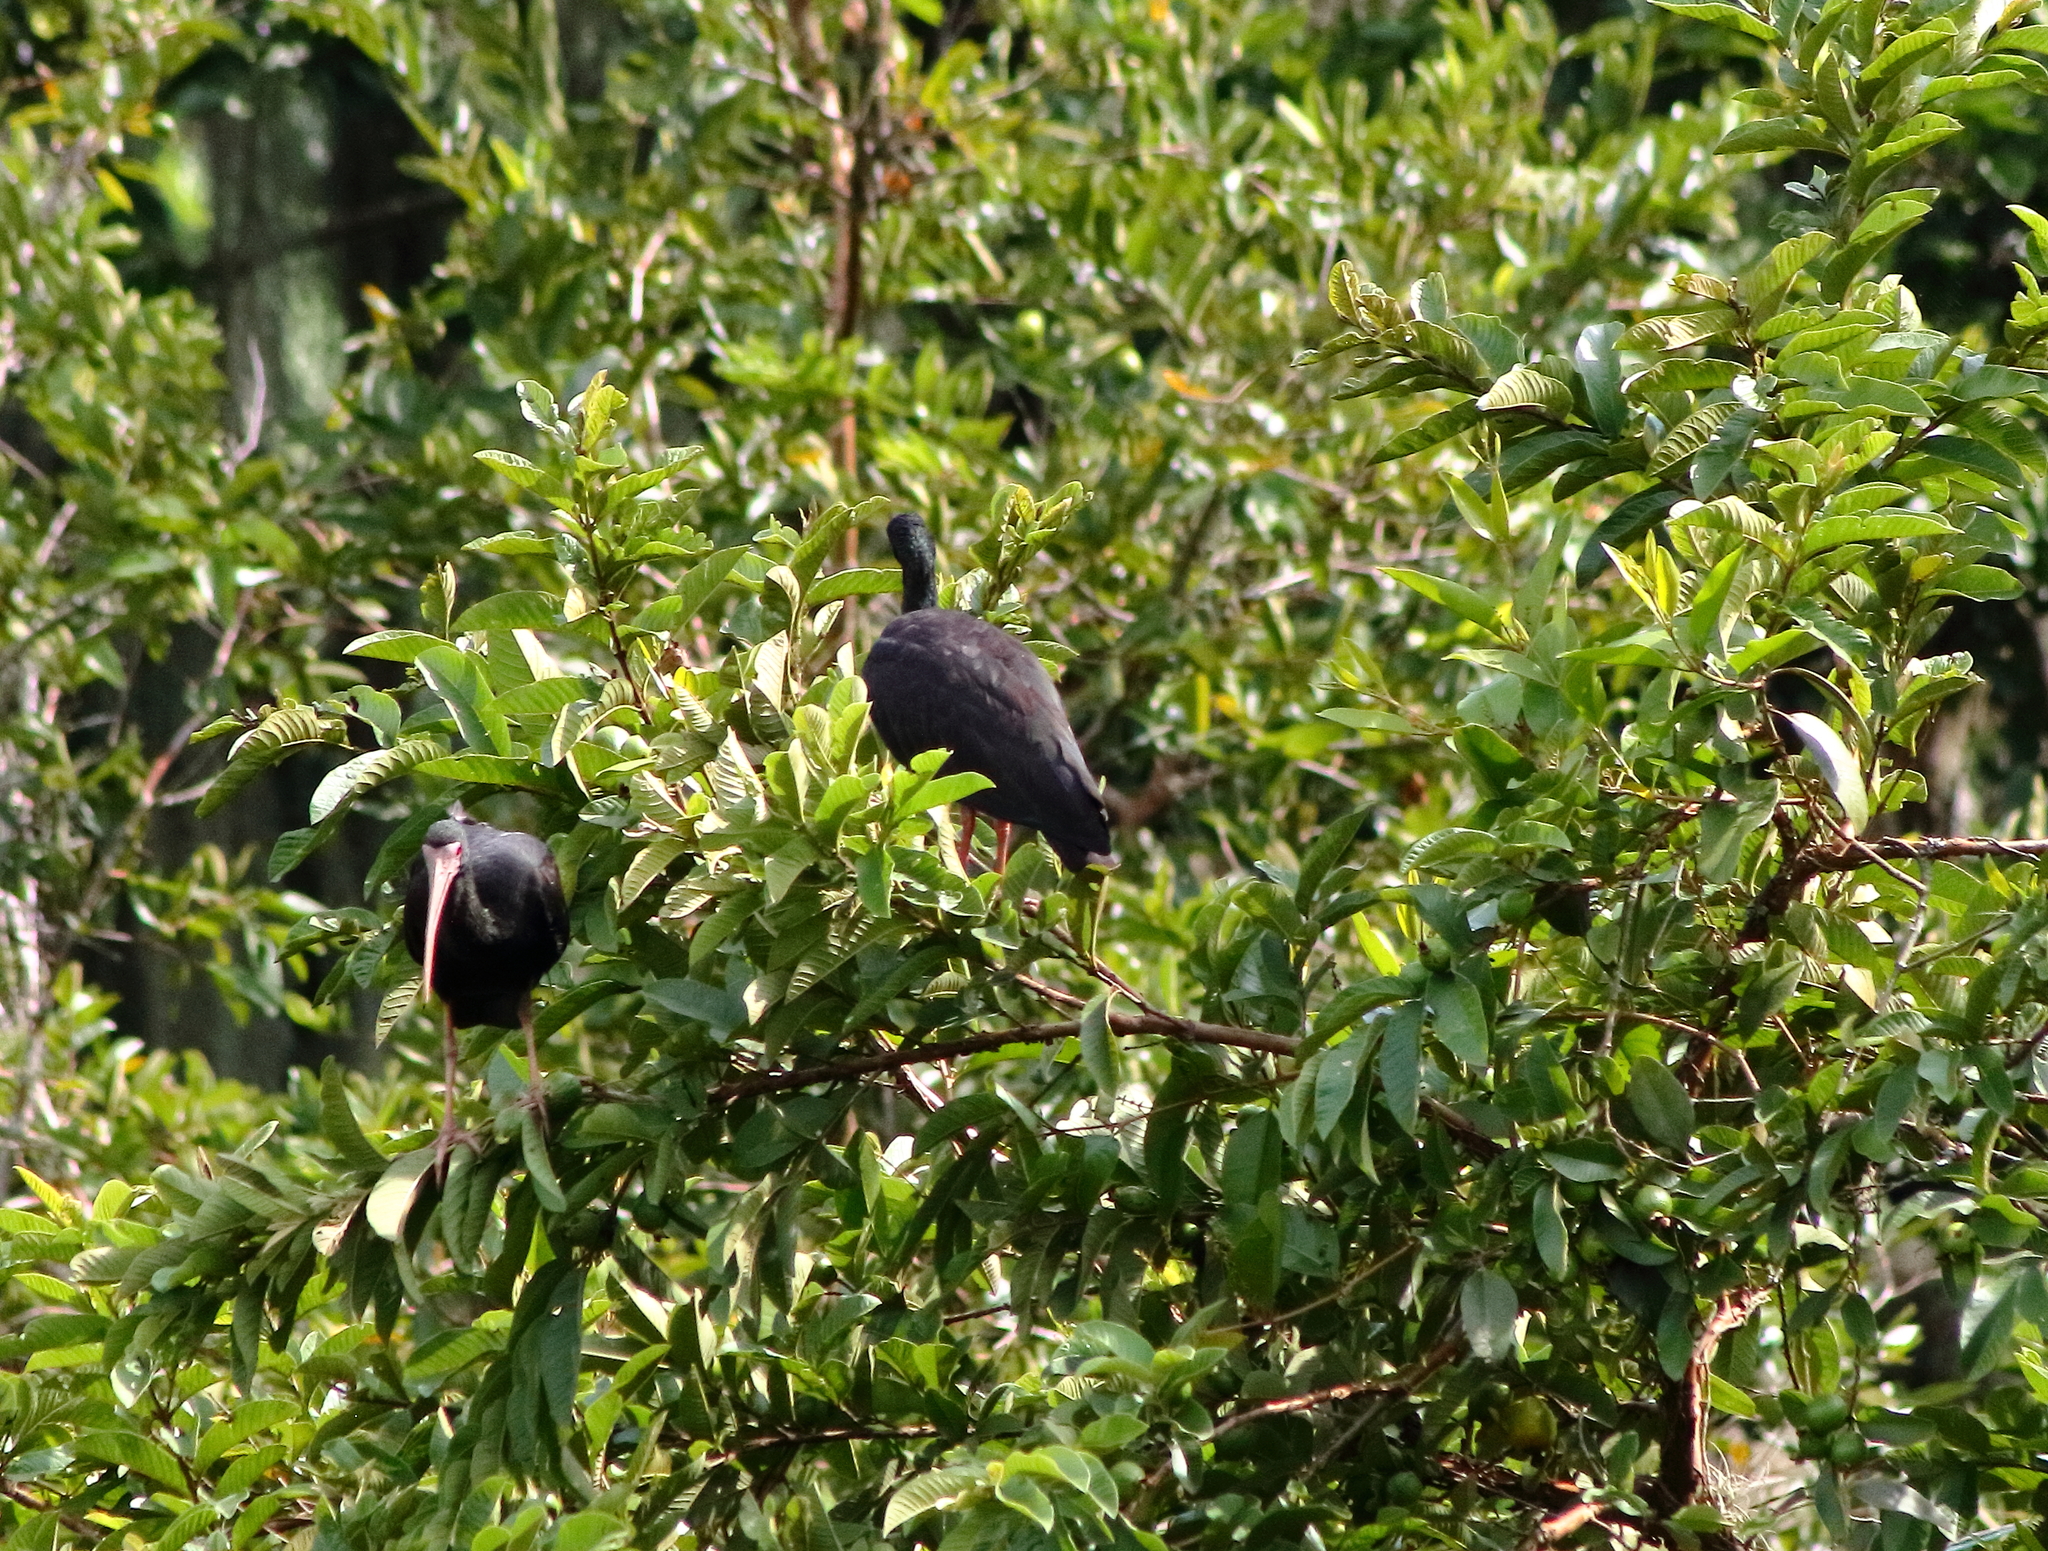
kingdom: Animalia
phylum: Chordata
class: Aves
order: Pelecaniformes
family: Threskiornithidae
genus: Phimosus
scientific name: Phimosus infuscatus
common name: Bare-faced ibis
